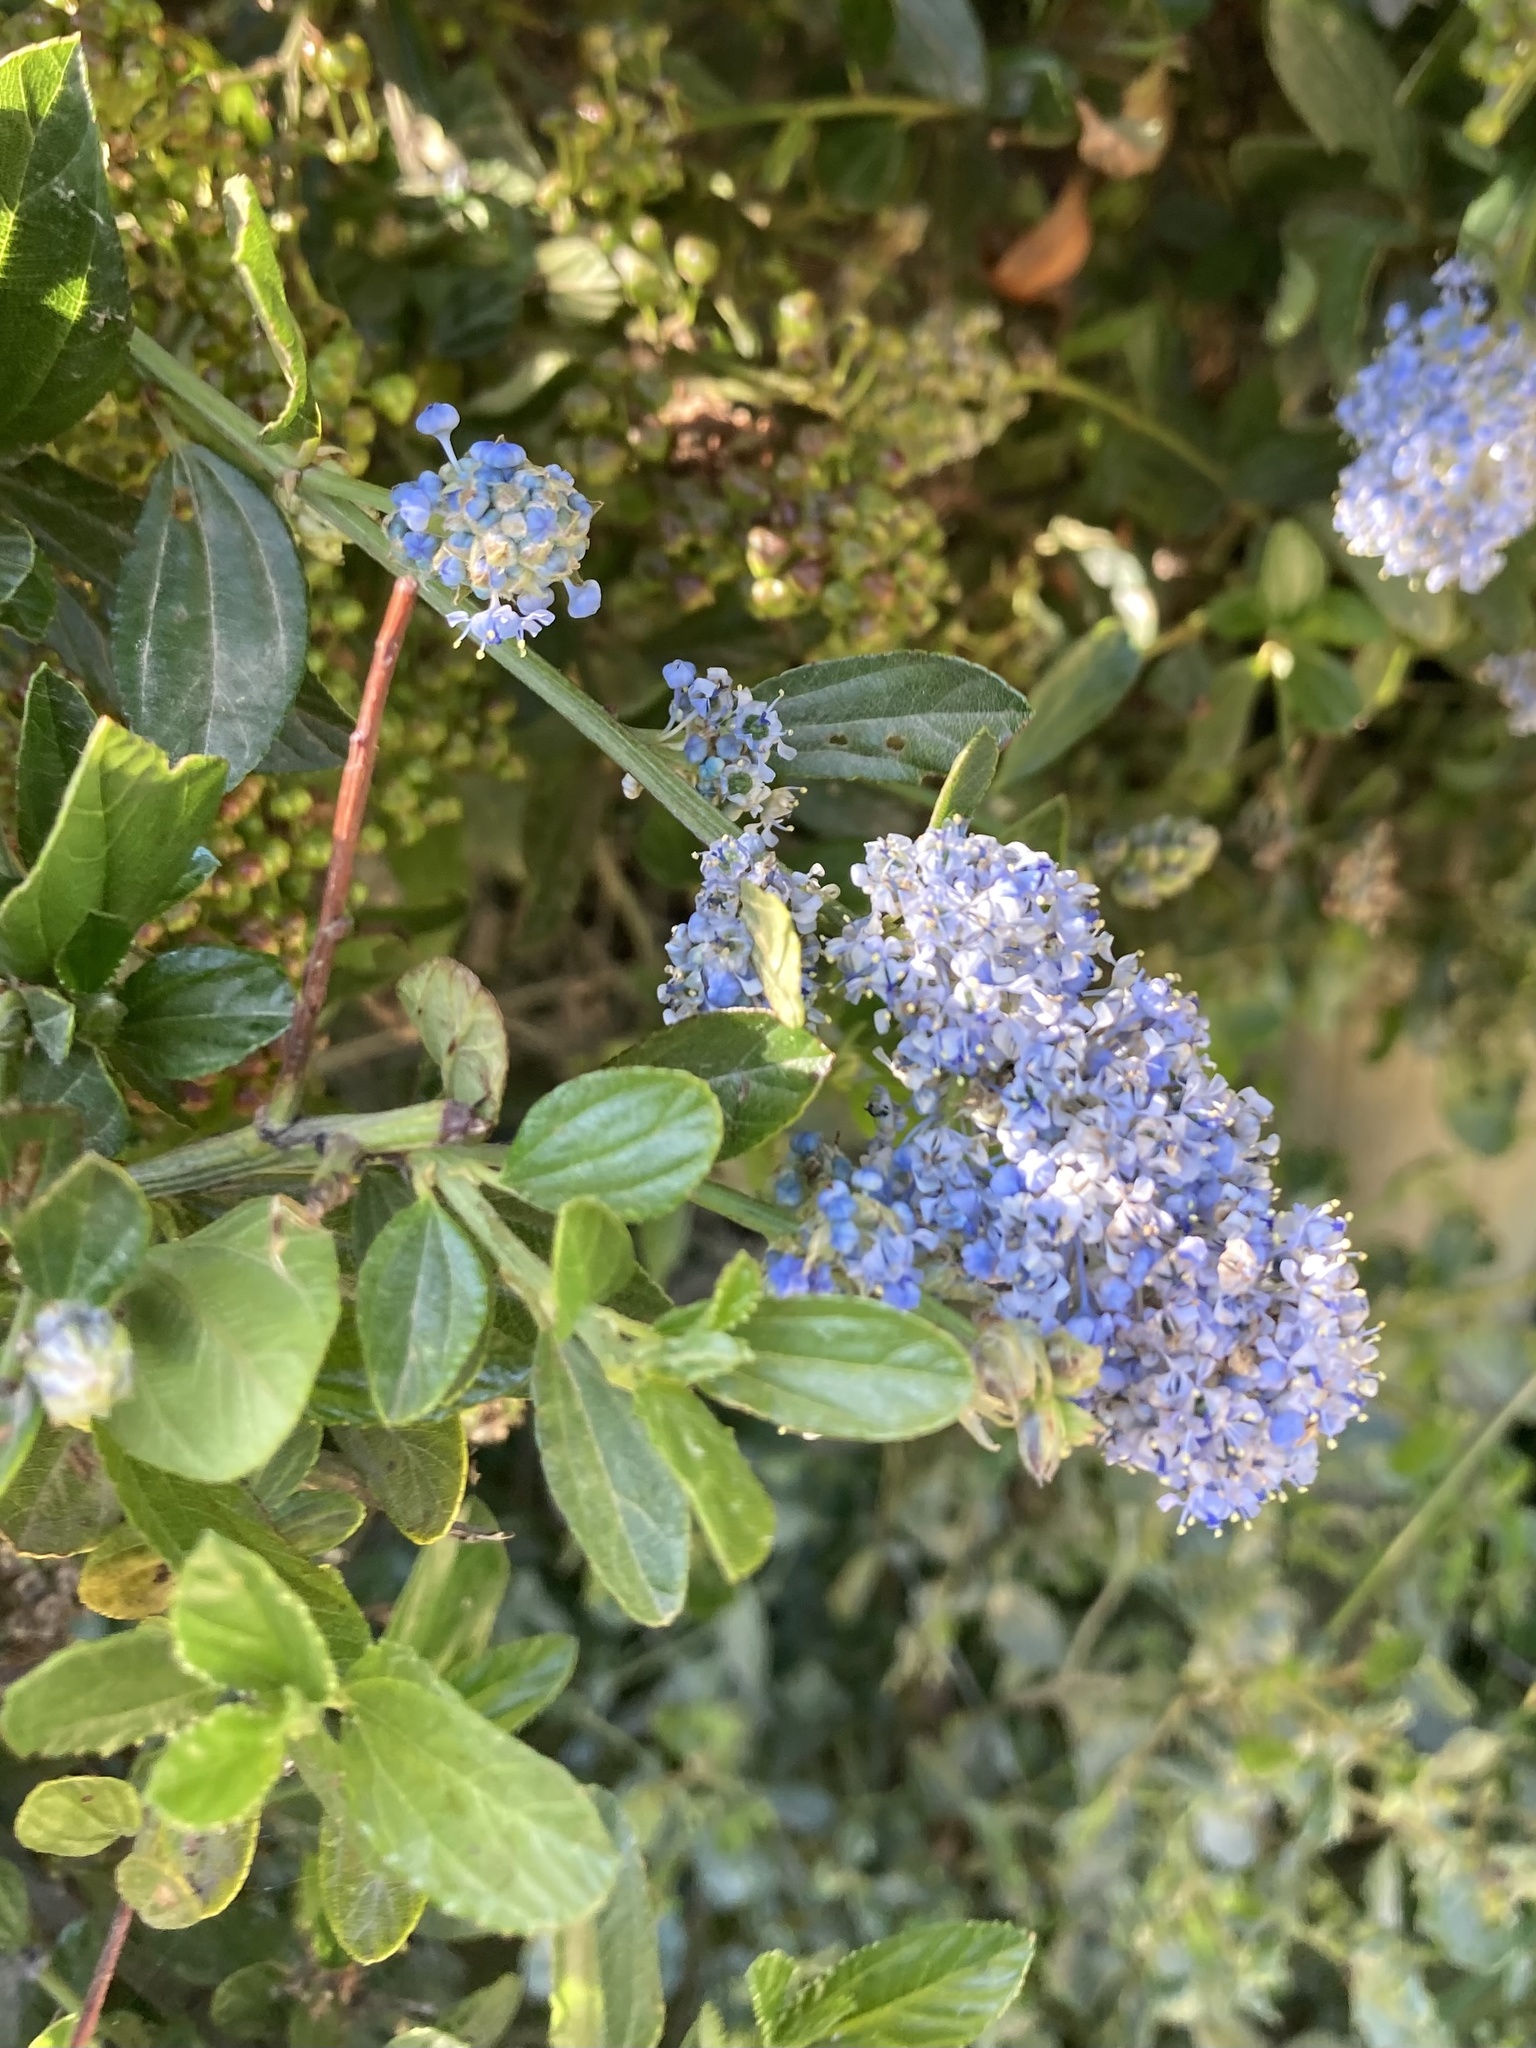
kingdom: Plantae
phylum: Tracheophyta
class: Magnoliopsida
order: Rosales
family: Rhamnaceae
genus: Ceanothus
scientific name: Ceanothus thyrsiflorus
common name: California-lilac
